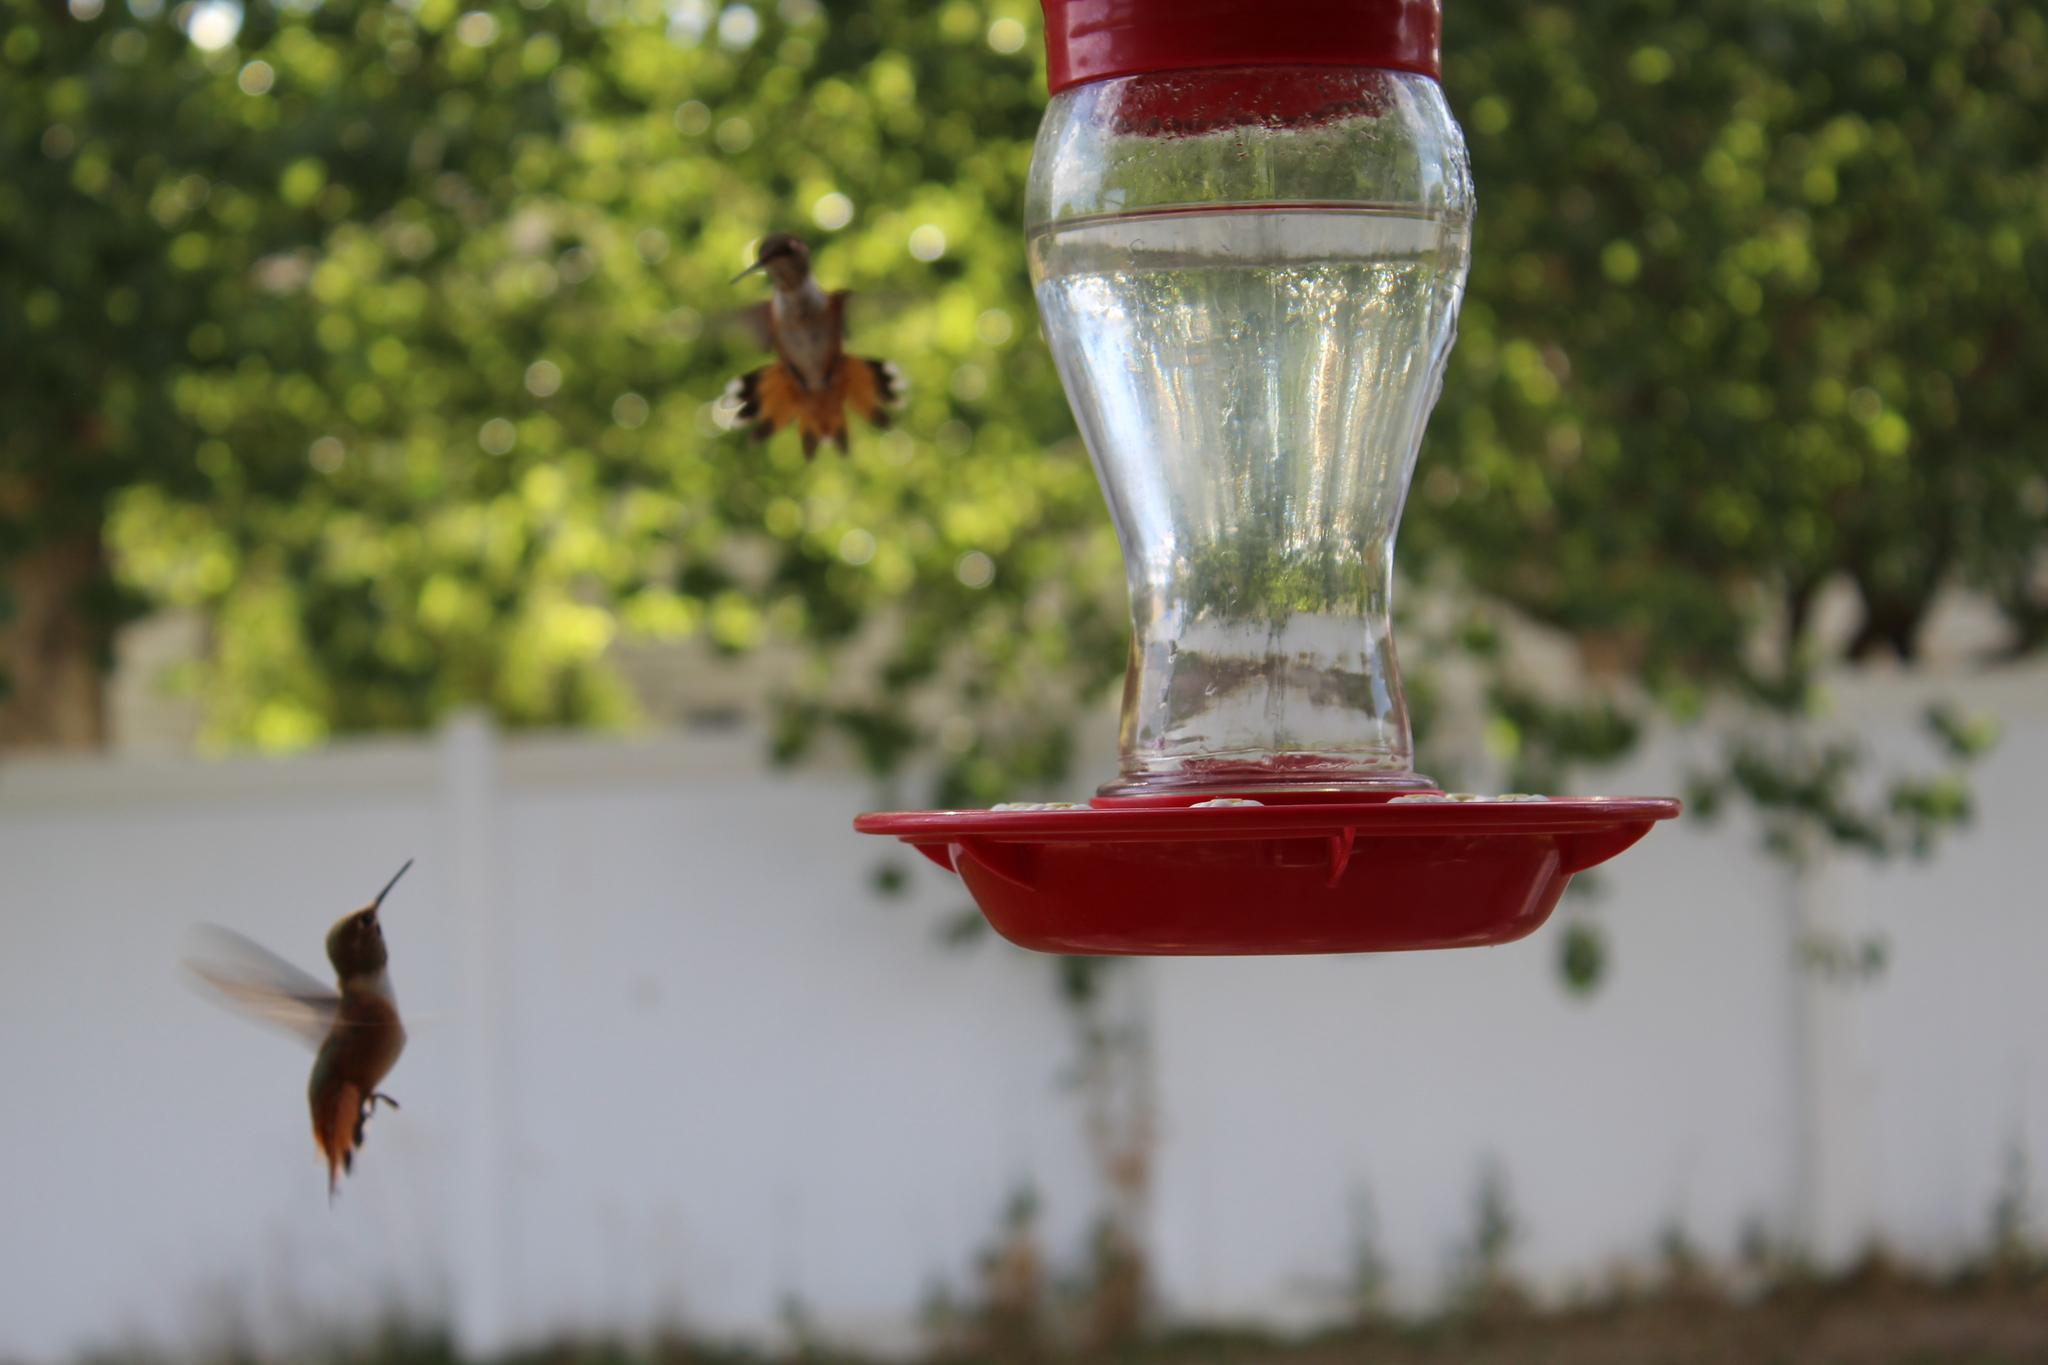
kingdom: Animalia
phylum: Chordata
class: Aves
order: Apodiformes
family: Trochilidae
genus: Selasphorus
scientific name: Selasphorus rufus
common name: Rufous hummingbird
